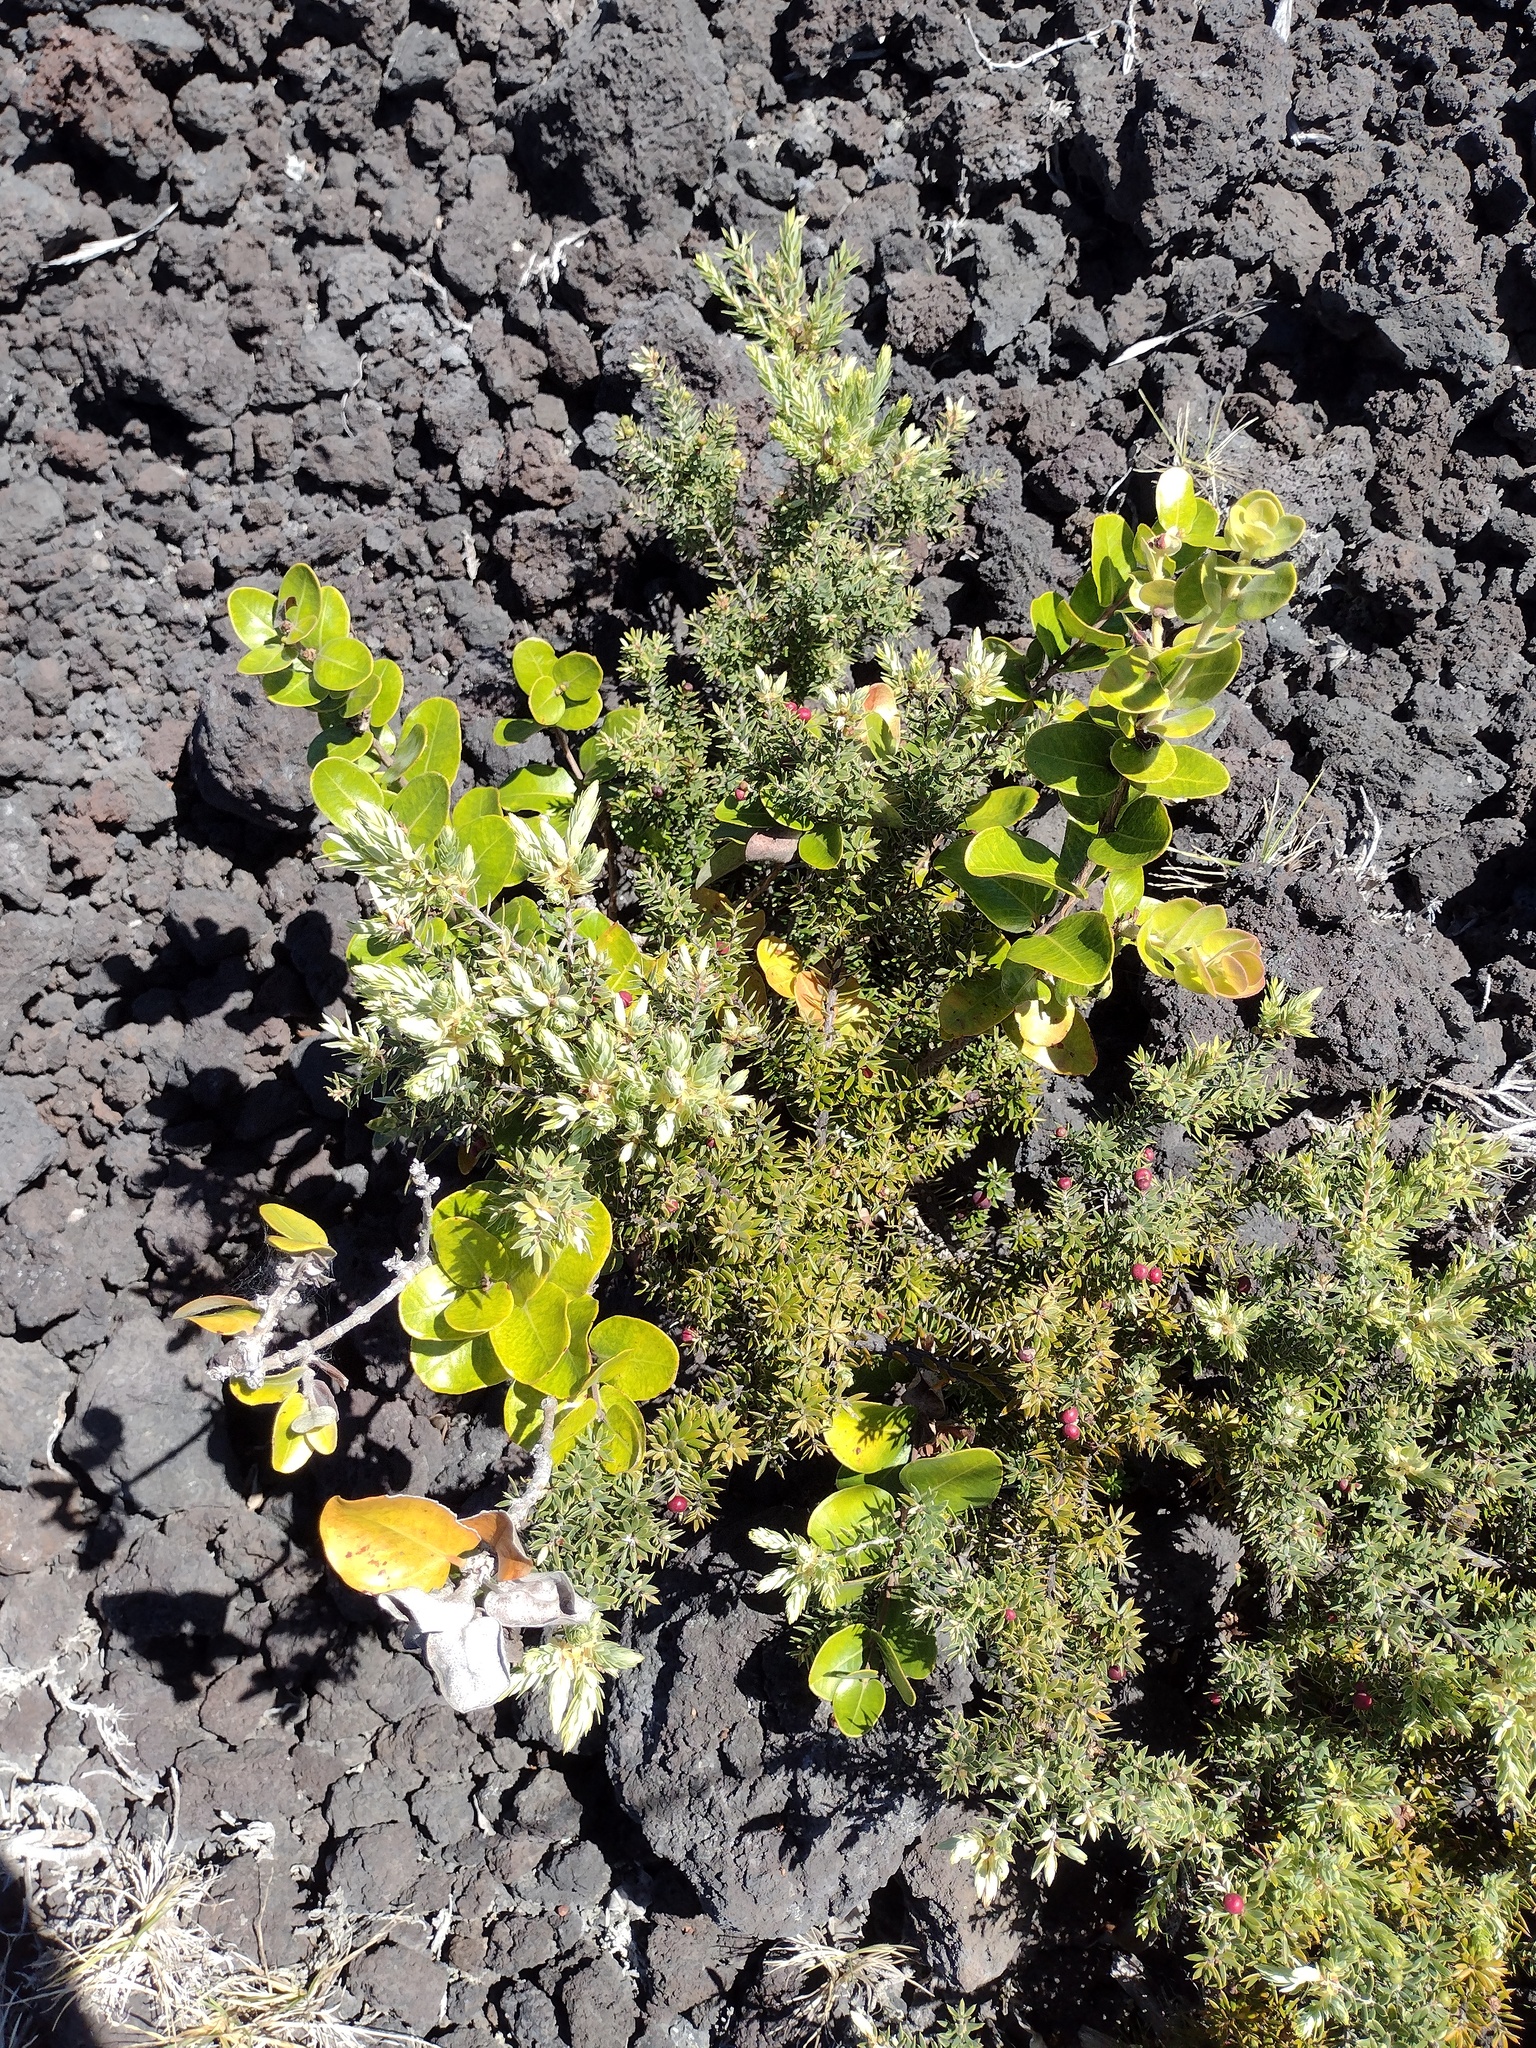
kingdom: Plantae
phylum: Tracheophyta
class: Magnoliopsida
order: Myrtales
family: Myrtaceae
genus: Metrosideros
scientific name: Metrosideros polymorpha
